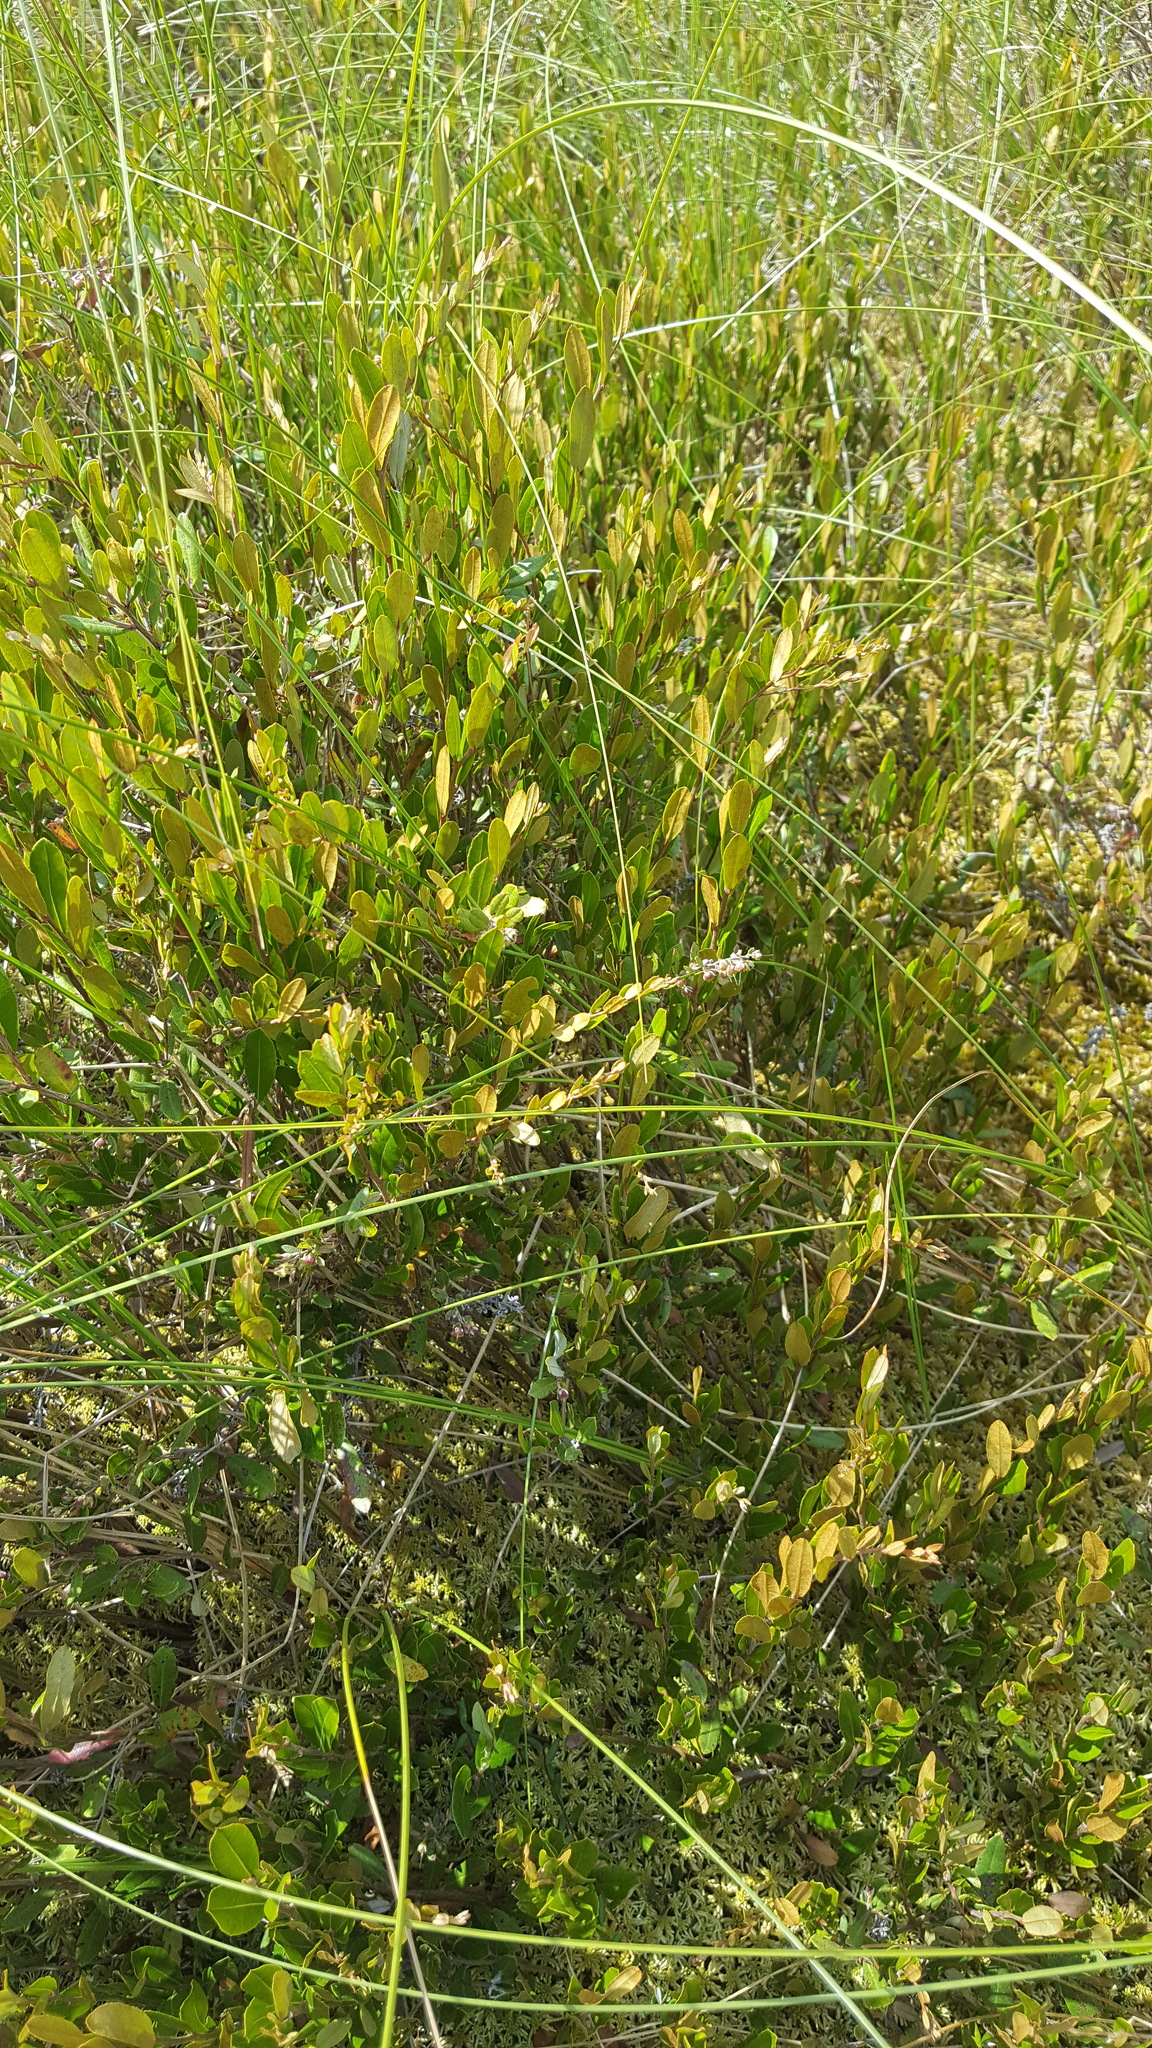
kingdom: Plantae
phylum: Tracheophyta
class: Magnoliopsida
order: Ericales
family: Ericaceae
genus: Chamaedaphne
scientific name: Chamaedaphne calyculata
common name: Leatherleaf
